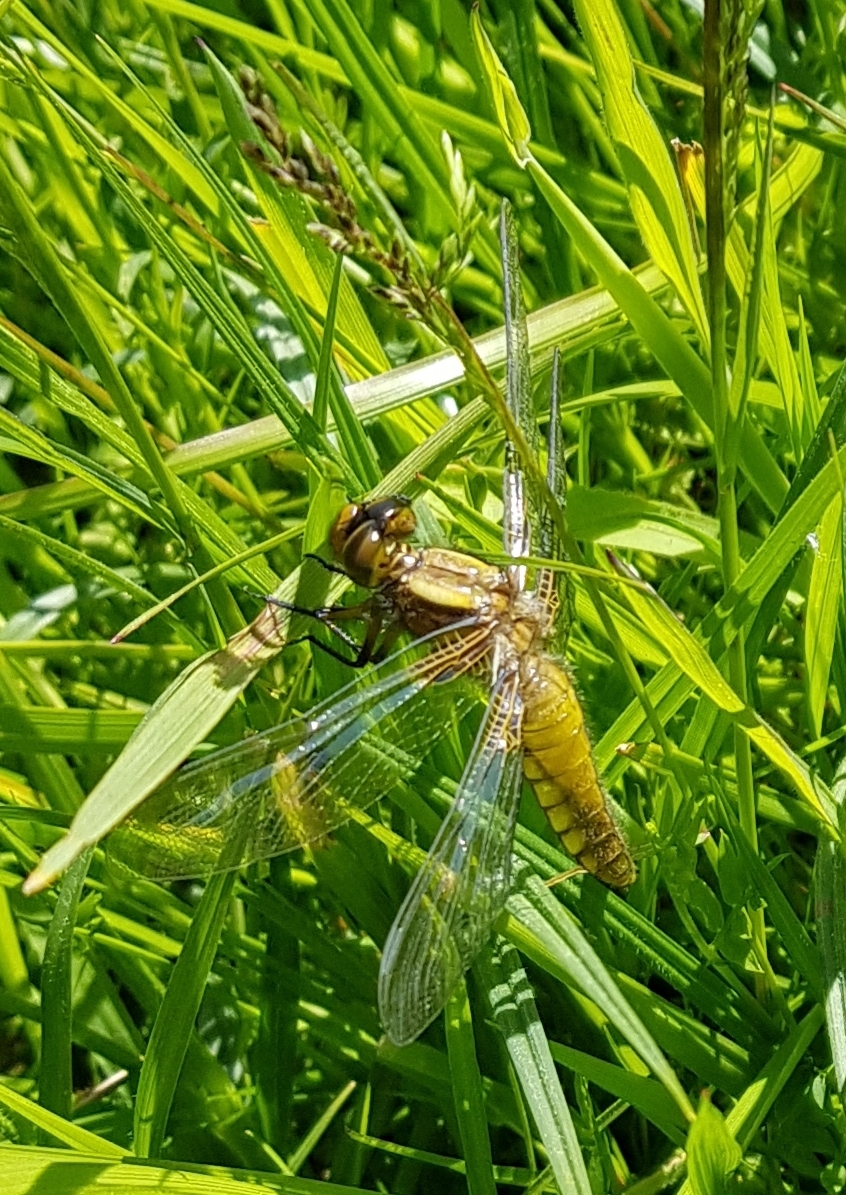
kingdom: Animalia
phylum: Arthropoda
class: Insecta
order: Odonata
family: Libellulidae
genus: Libellula
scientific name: Libellula depressa
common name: Broad-bodied chaser
